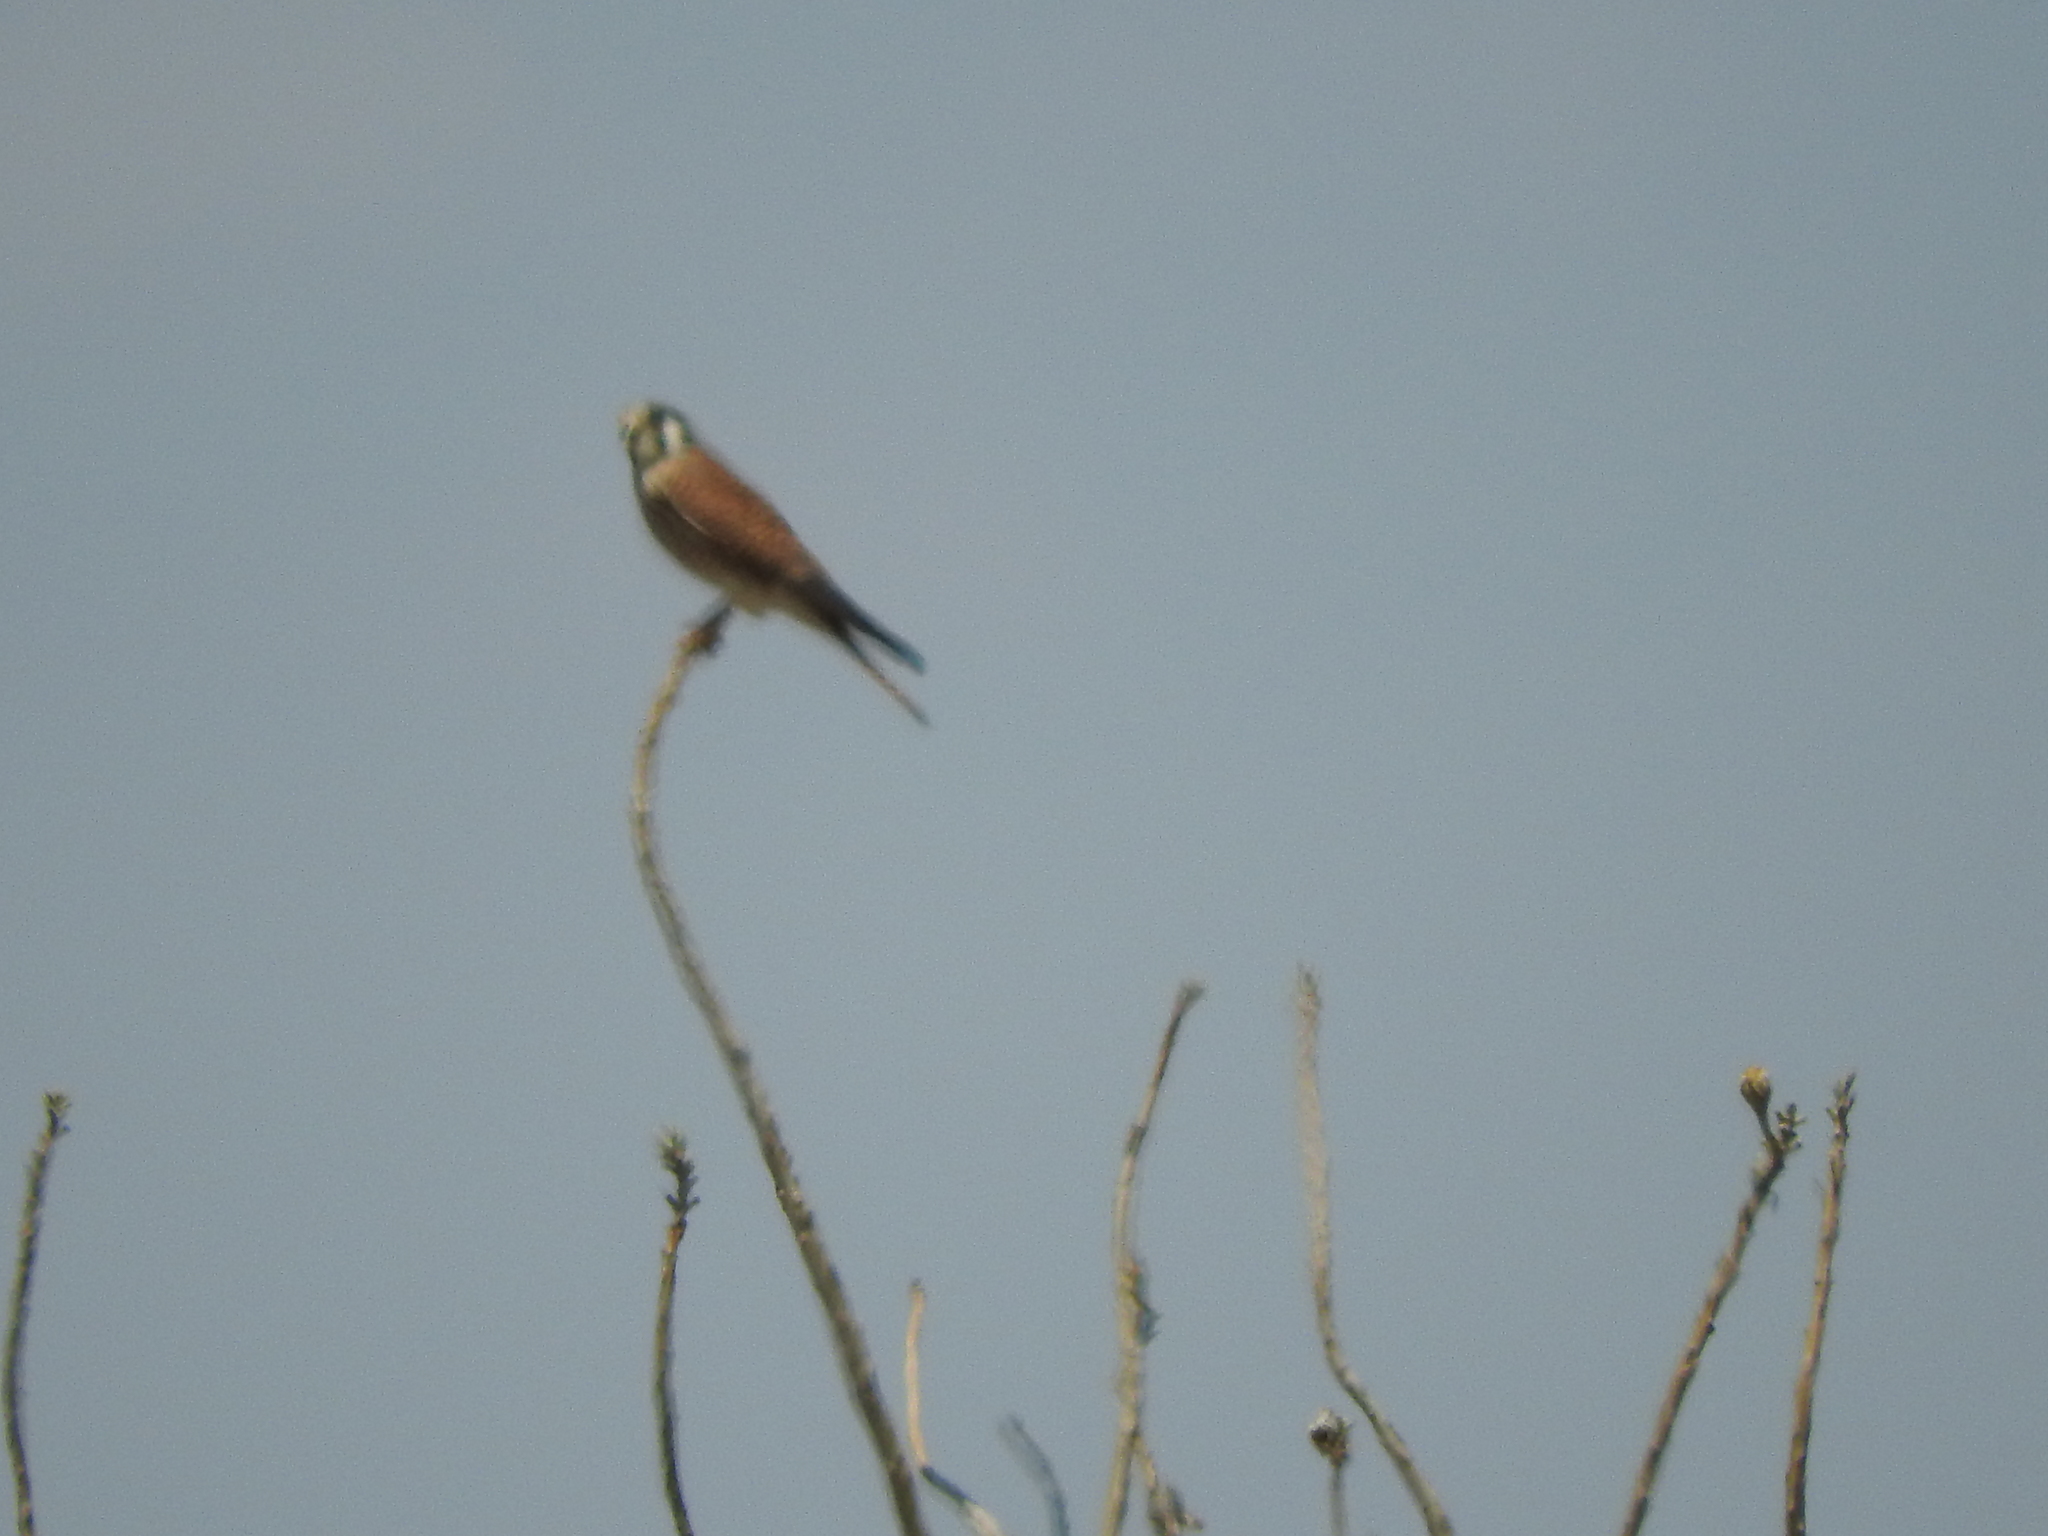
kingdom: Animalia
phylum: Chordata
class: Aves
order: Falconiformes
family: Falconidae
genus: Falco
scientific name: Falco sparverius
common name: American kestrel
